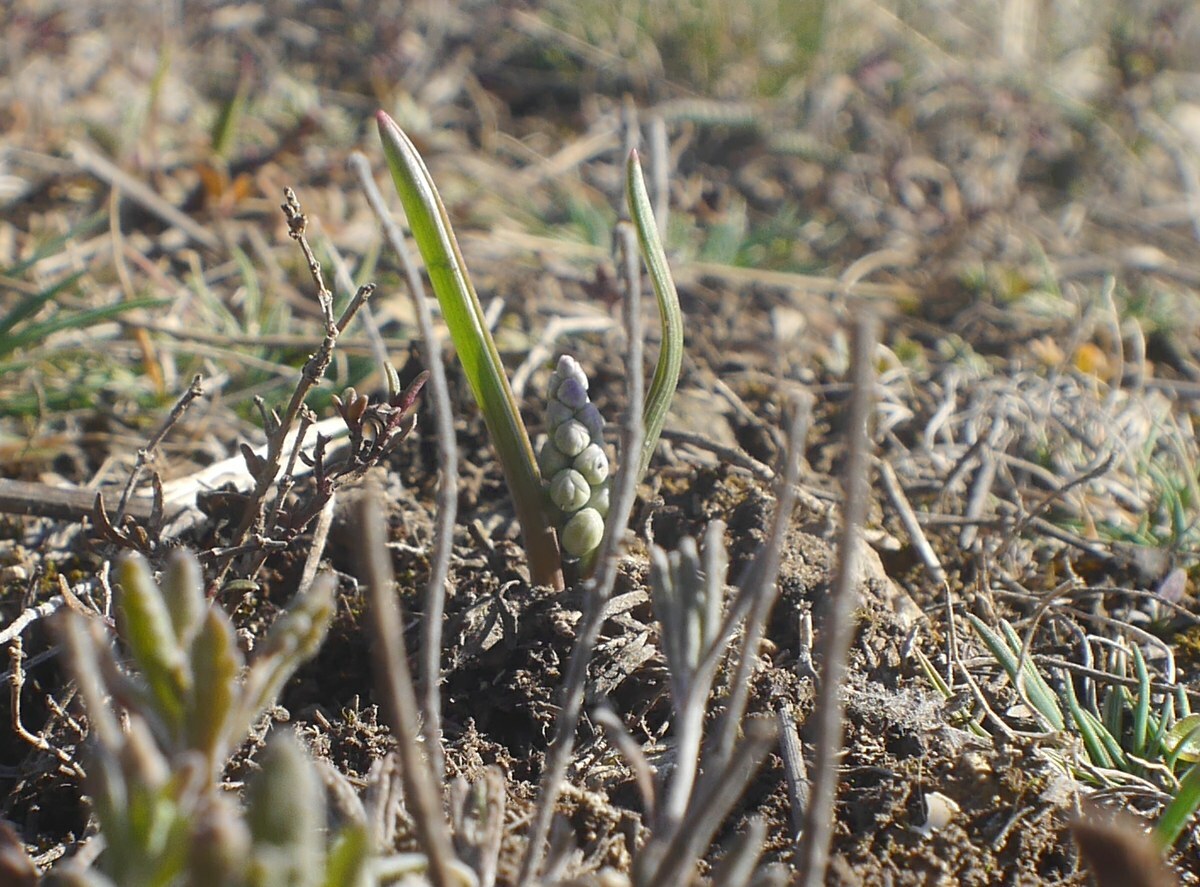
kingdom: Plantae
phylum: Tracheophyta
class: Liliopsida
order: Asparagales
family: Asparagaceae
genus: Hyacinthella
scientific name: Hyacinthella leucophaea
